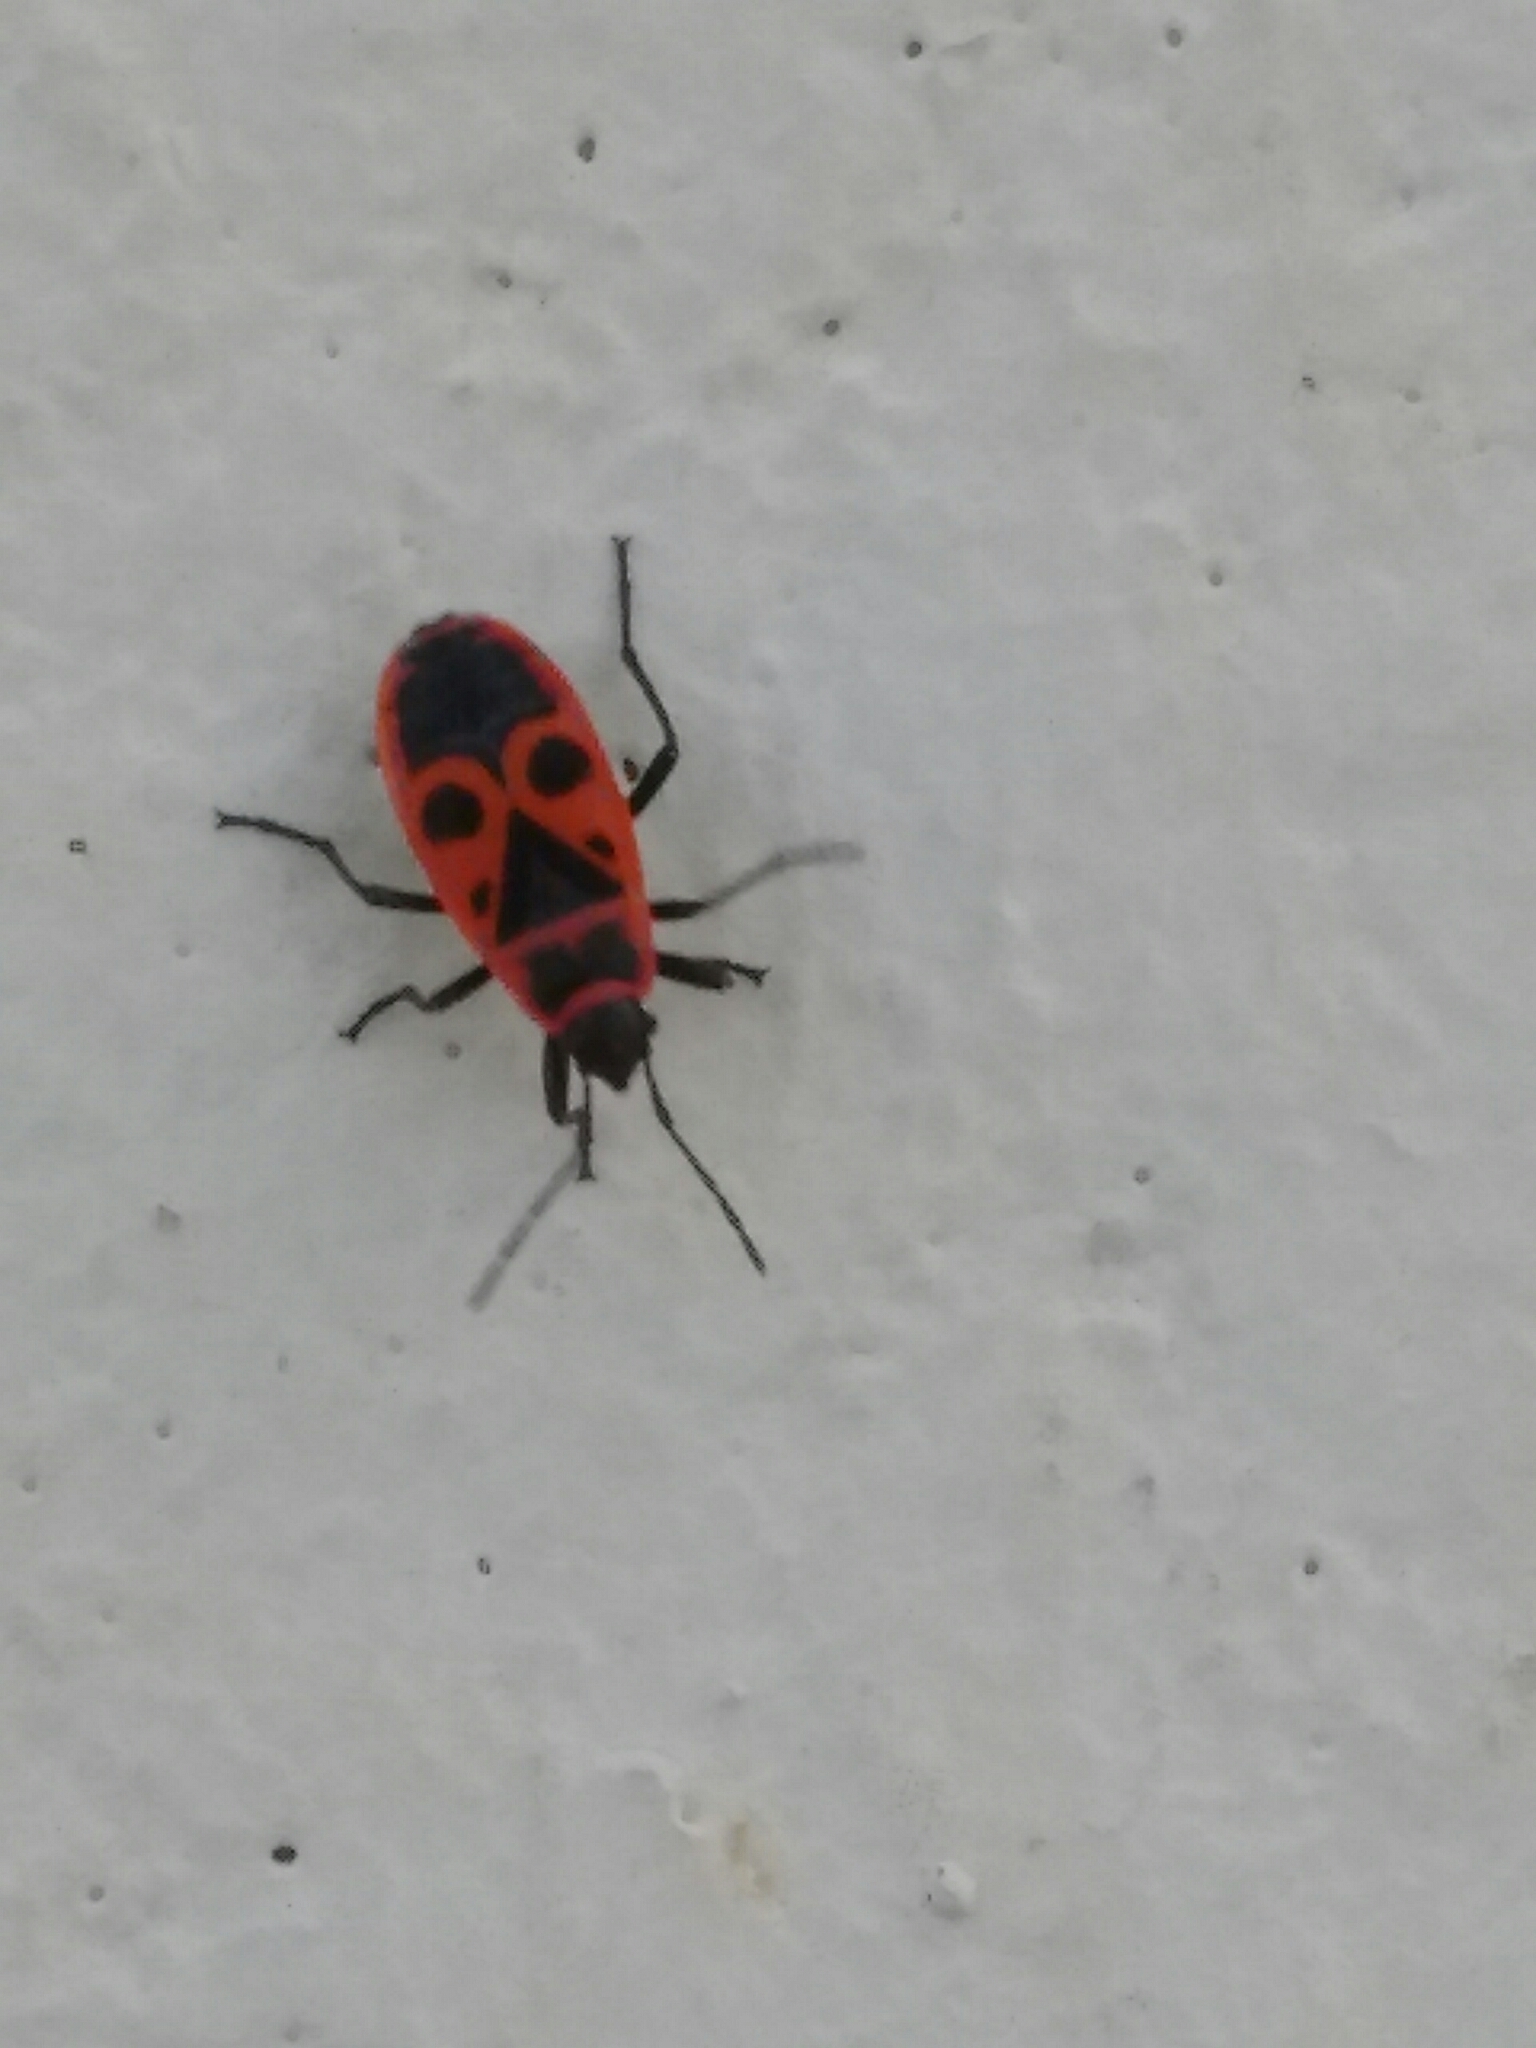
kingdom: Animalia
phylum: Arthropoda
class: Insecta
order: Hemiptera
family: Pyrrhocoridae
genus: Pyrrhocoris
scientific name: Pyrrhocoris apterus
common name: Firebug
